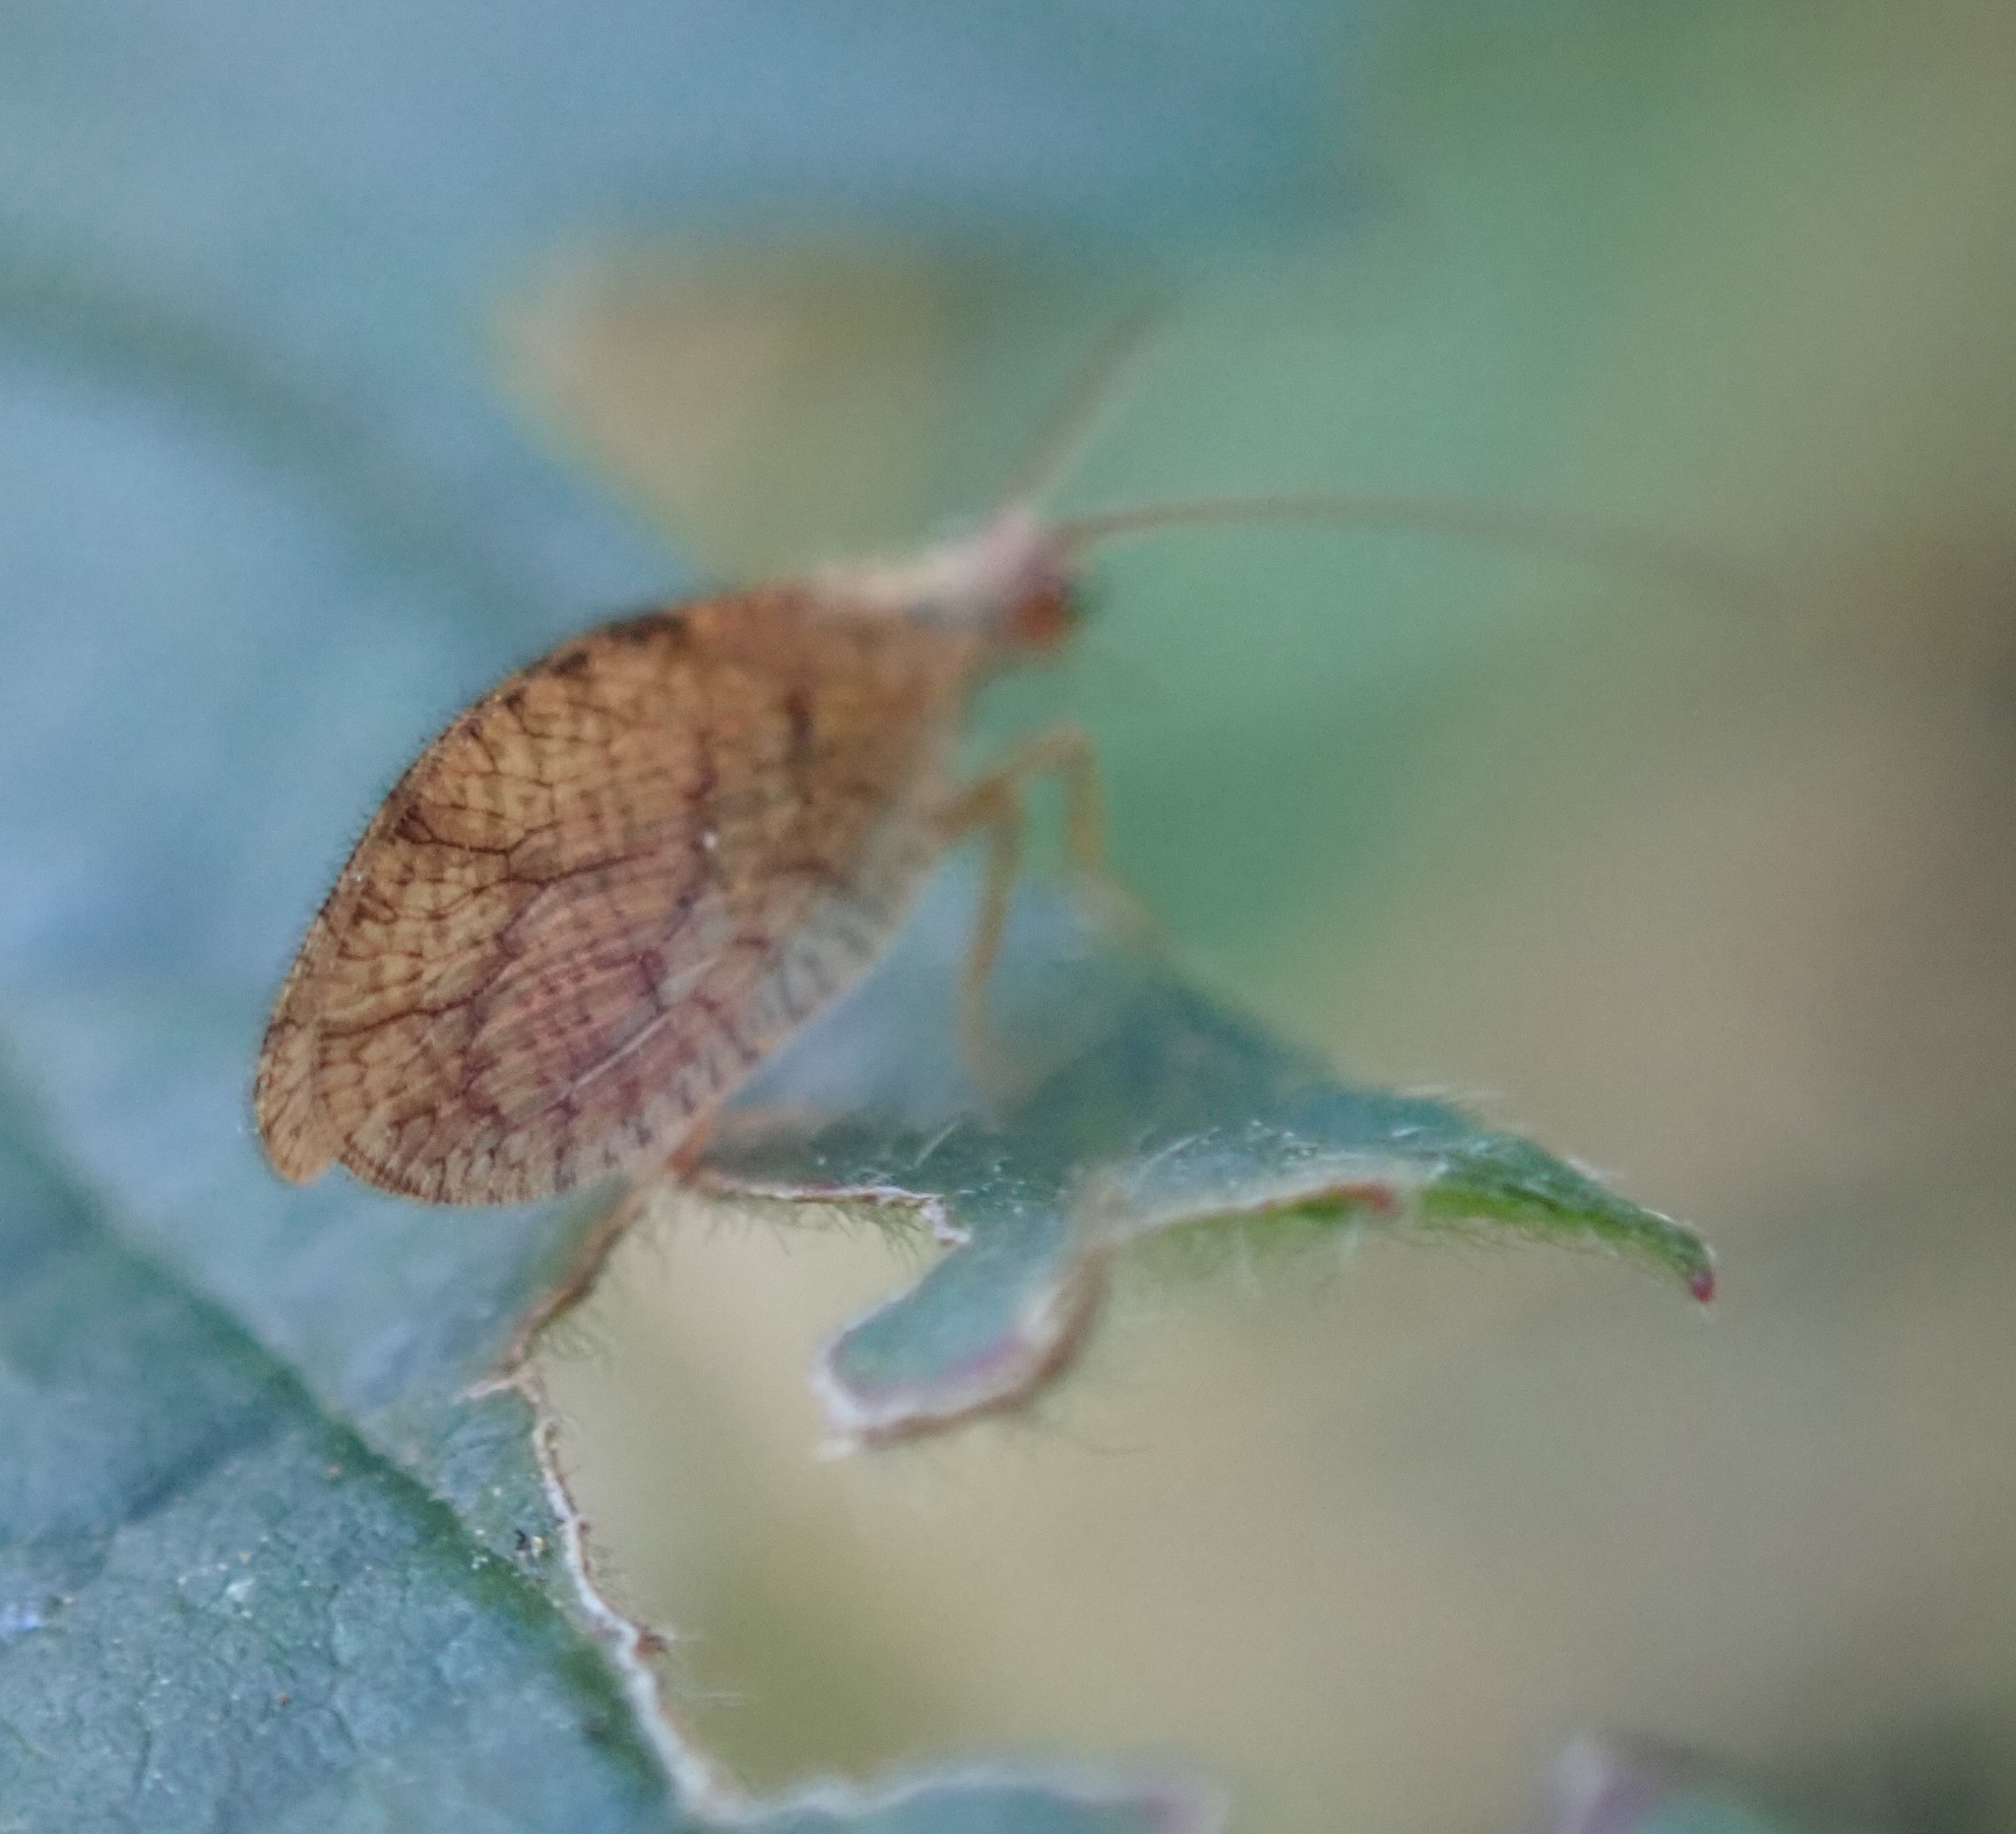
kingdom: Animalia
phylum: Arthropoda
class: Insecta
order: Neuroptera
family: Hemerobiidae
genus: Micromus
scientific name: Micromus angulatus
